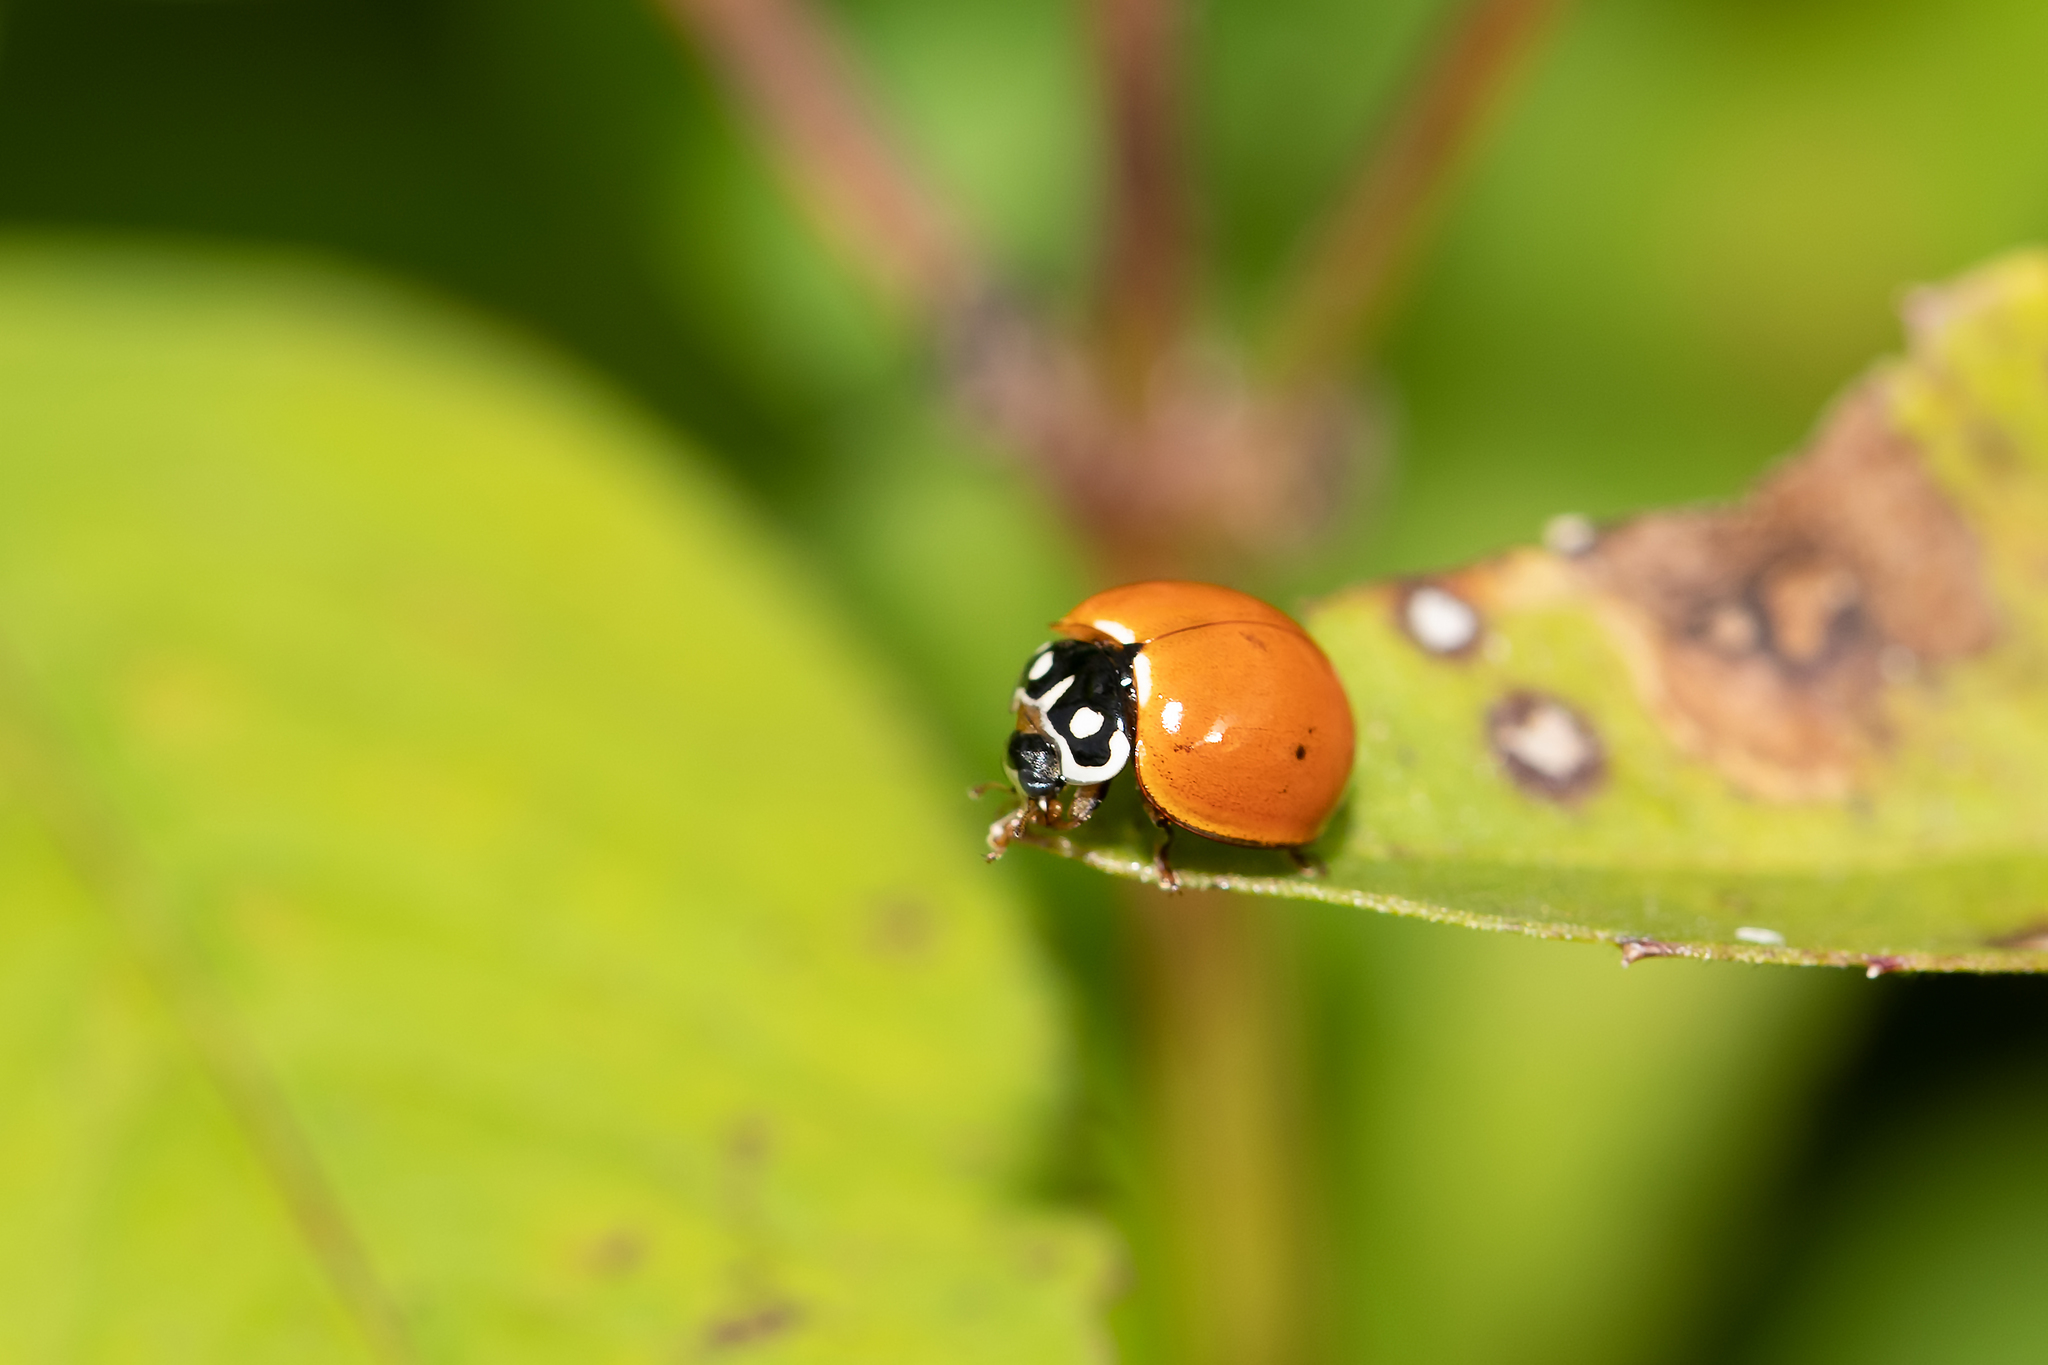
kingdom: Animalia
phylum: Arthropoda
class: Insecta
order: Coleoptera
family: Coccinellidae
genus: Cycloneda
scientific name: Cycloneda sanguinea
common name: Ladybird beetle
